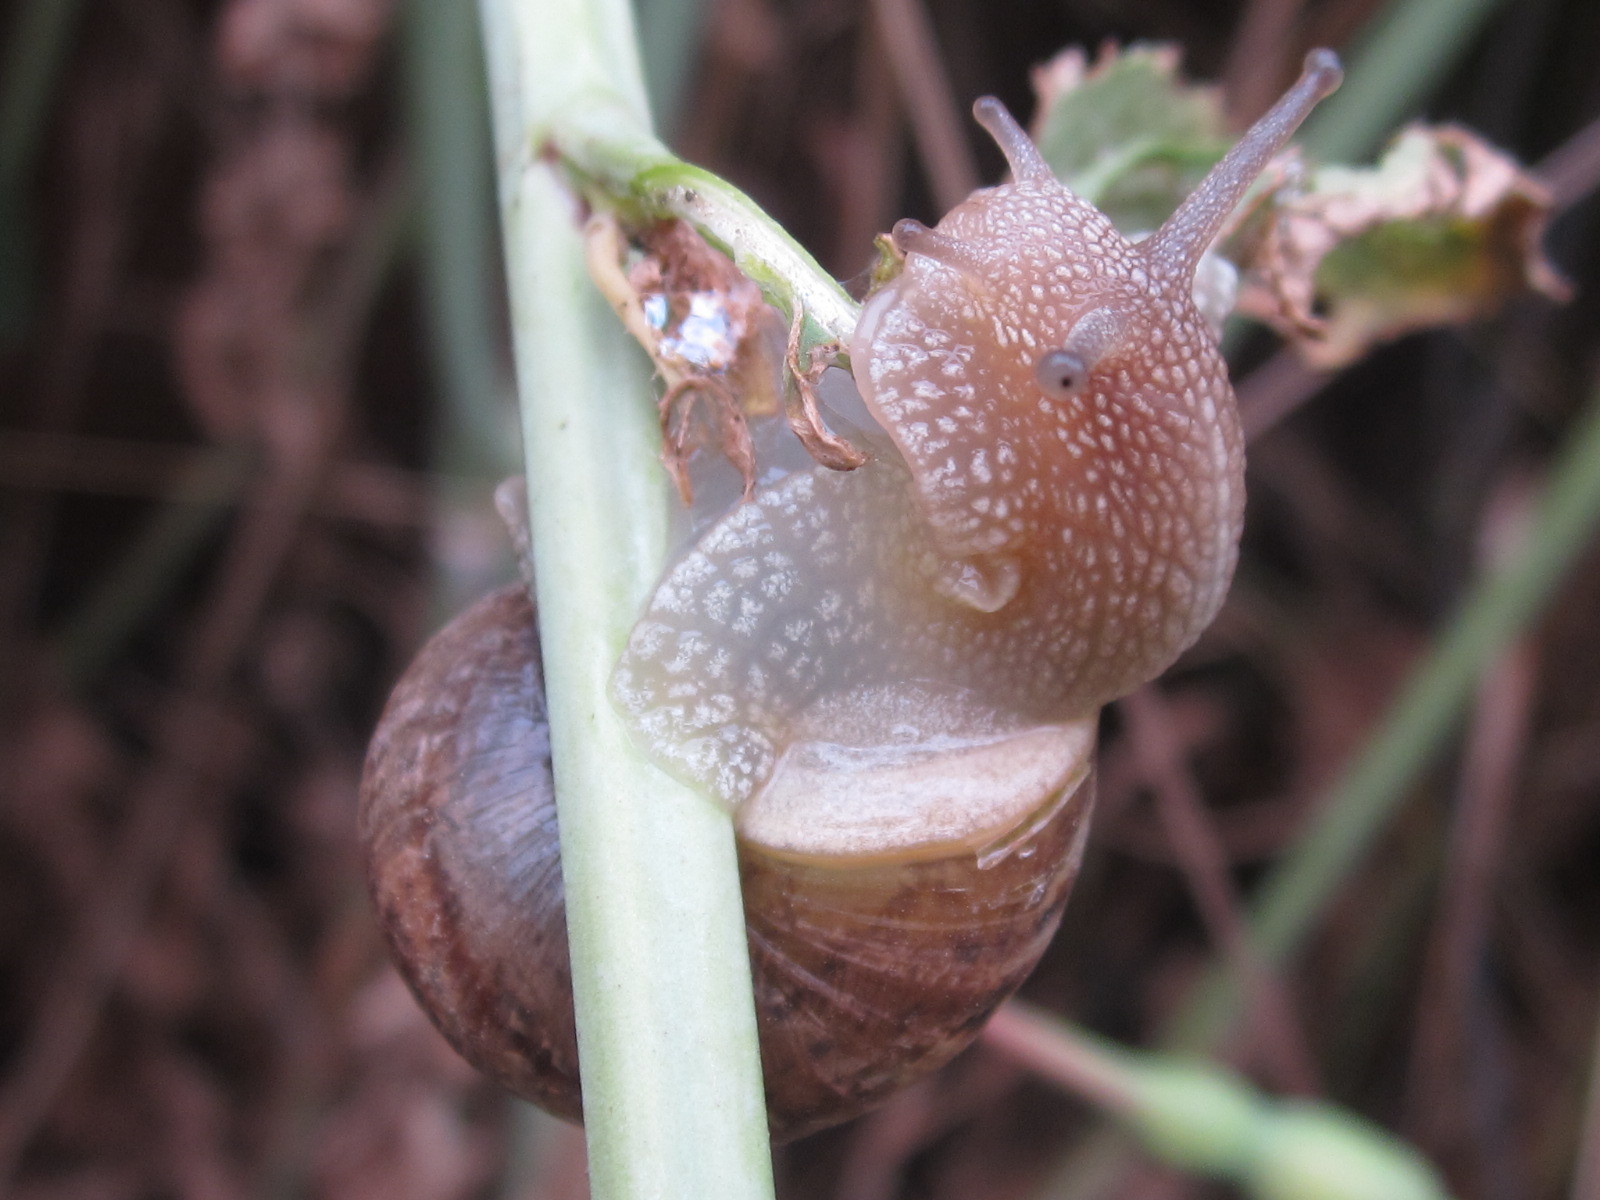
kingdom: Animalia
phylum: Mollusca
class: Gastropoda
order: Stylommatophora
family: Helicidae
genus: Cornu
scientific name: Cornu aspersum
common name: Brown garden snail
